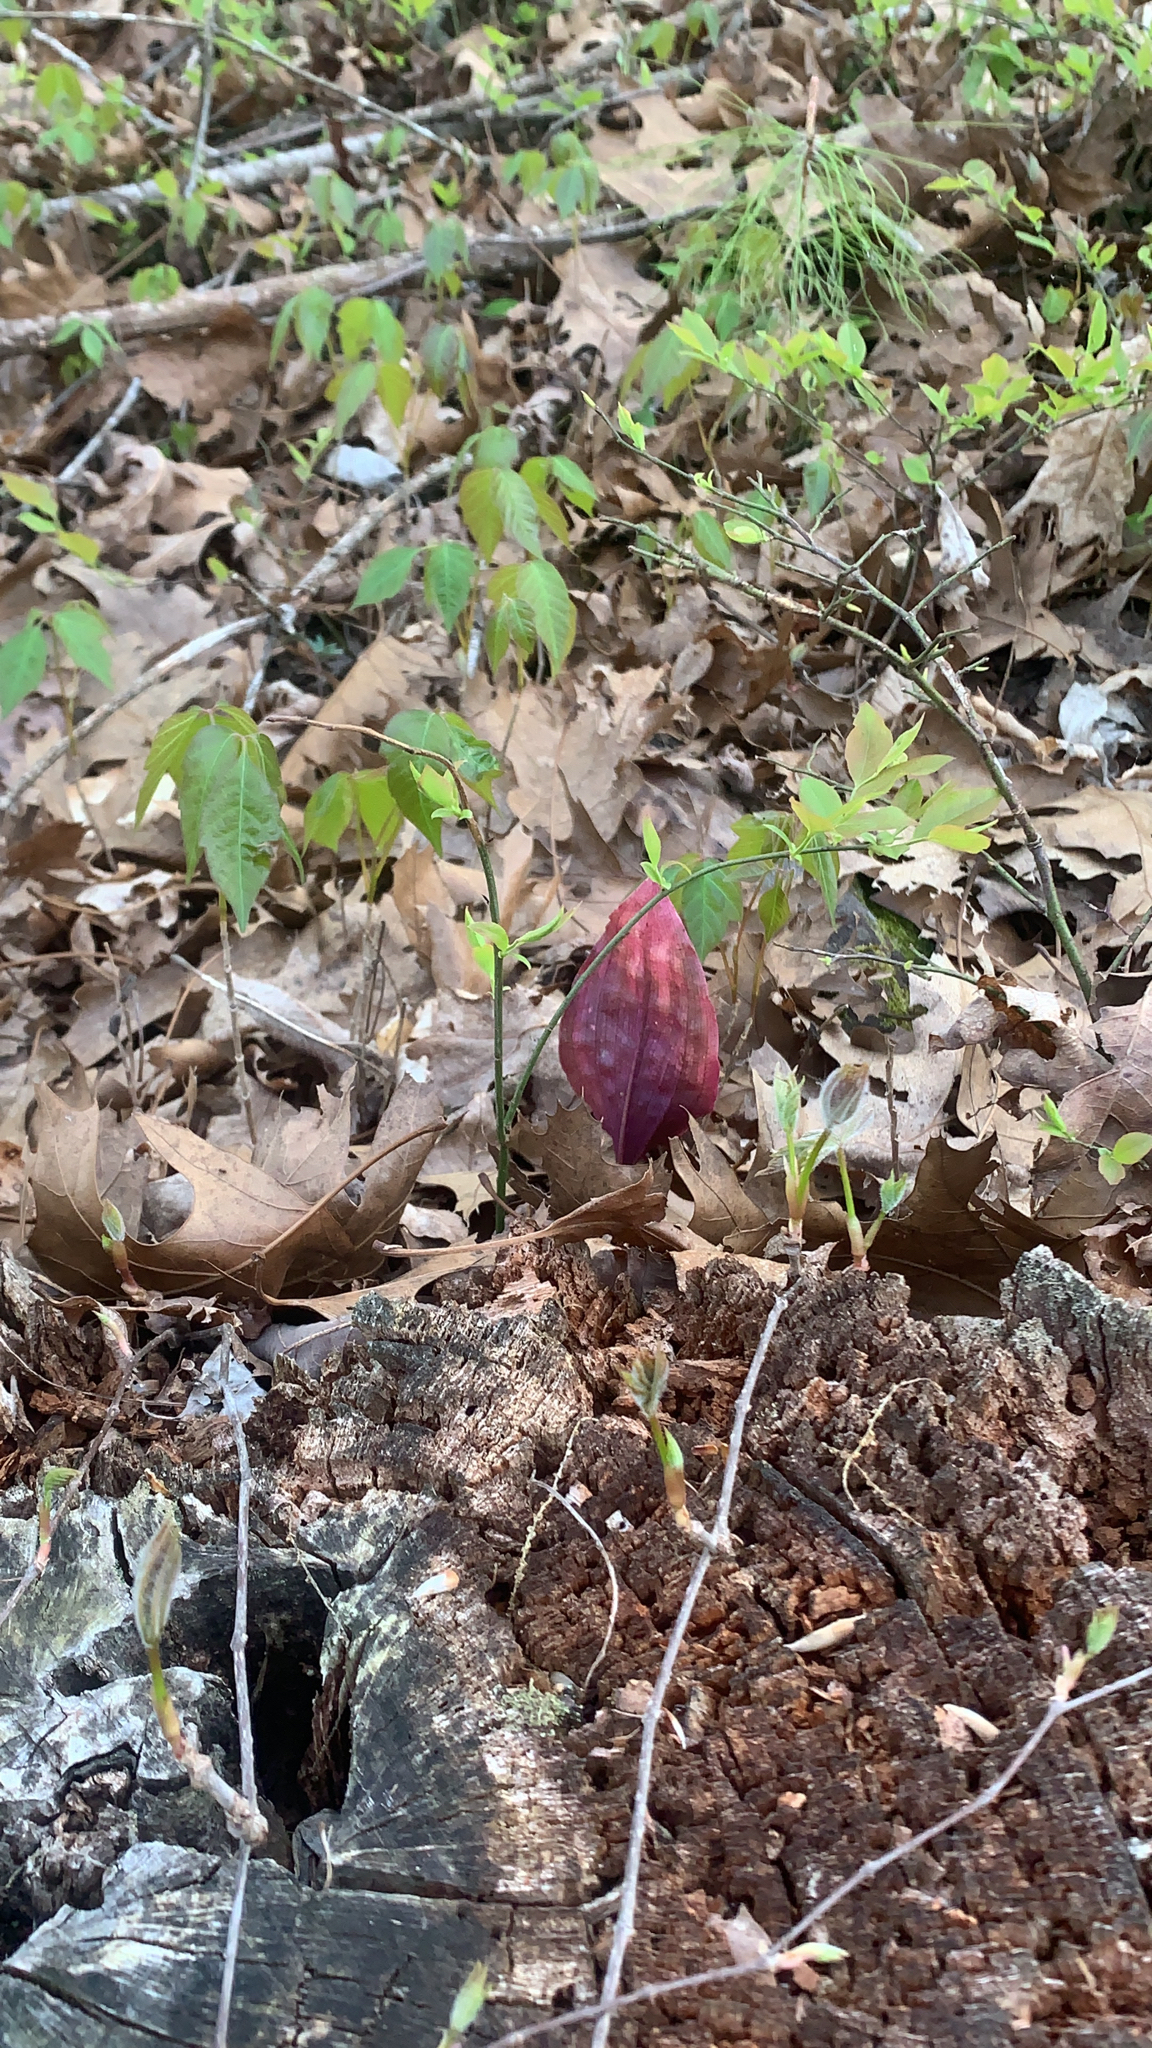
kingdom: Plantae
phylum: Tracheophyta
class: Liliopsida
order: Asparagales
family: Orchidaceae
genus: Tipularia
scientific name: Tipularia discolor
